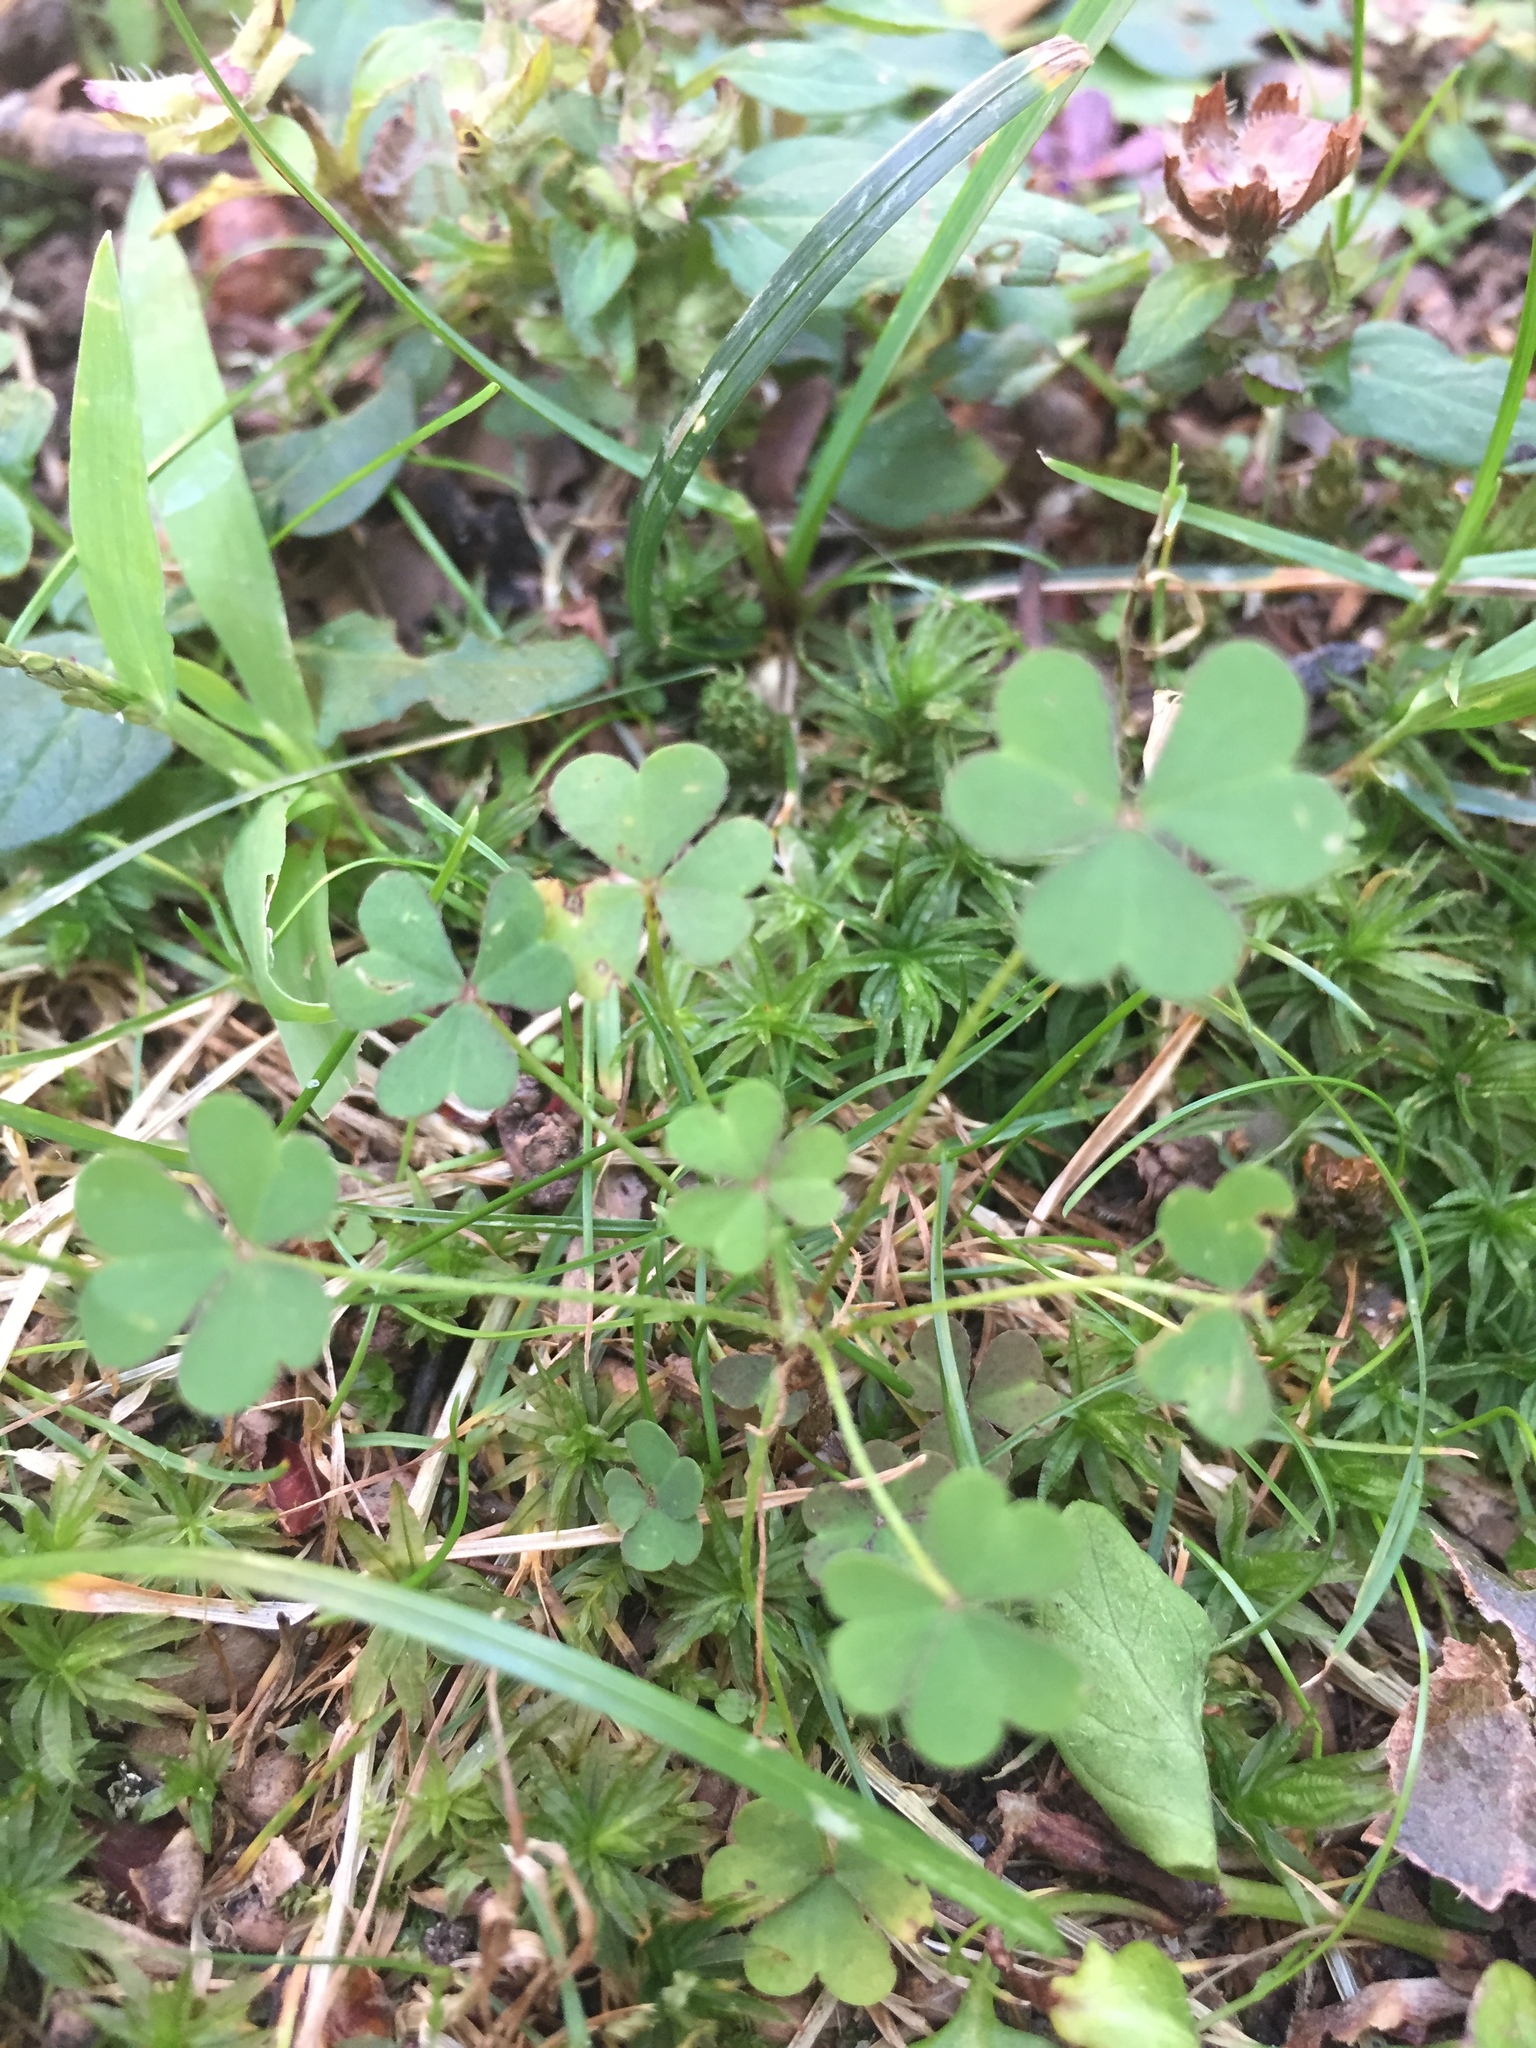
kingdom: Plantae
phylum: Tracheophyta
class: Magnoliopsida
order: Oxalidales
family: Oxalidaceae
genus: Oxalis
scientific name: Oxalis
